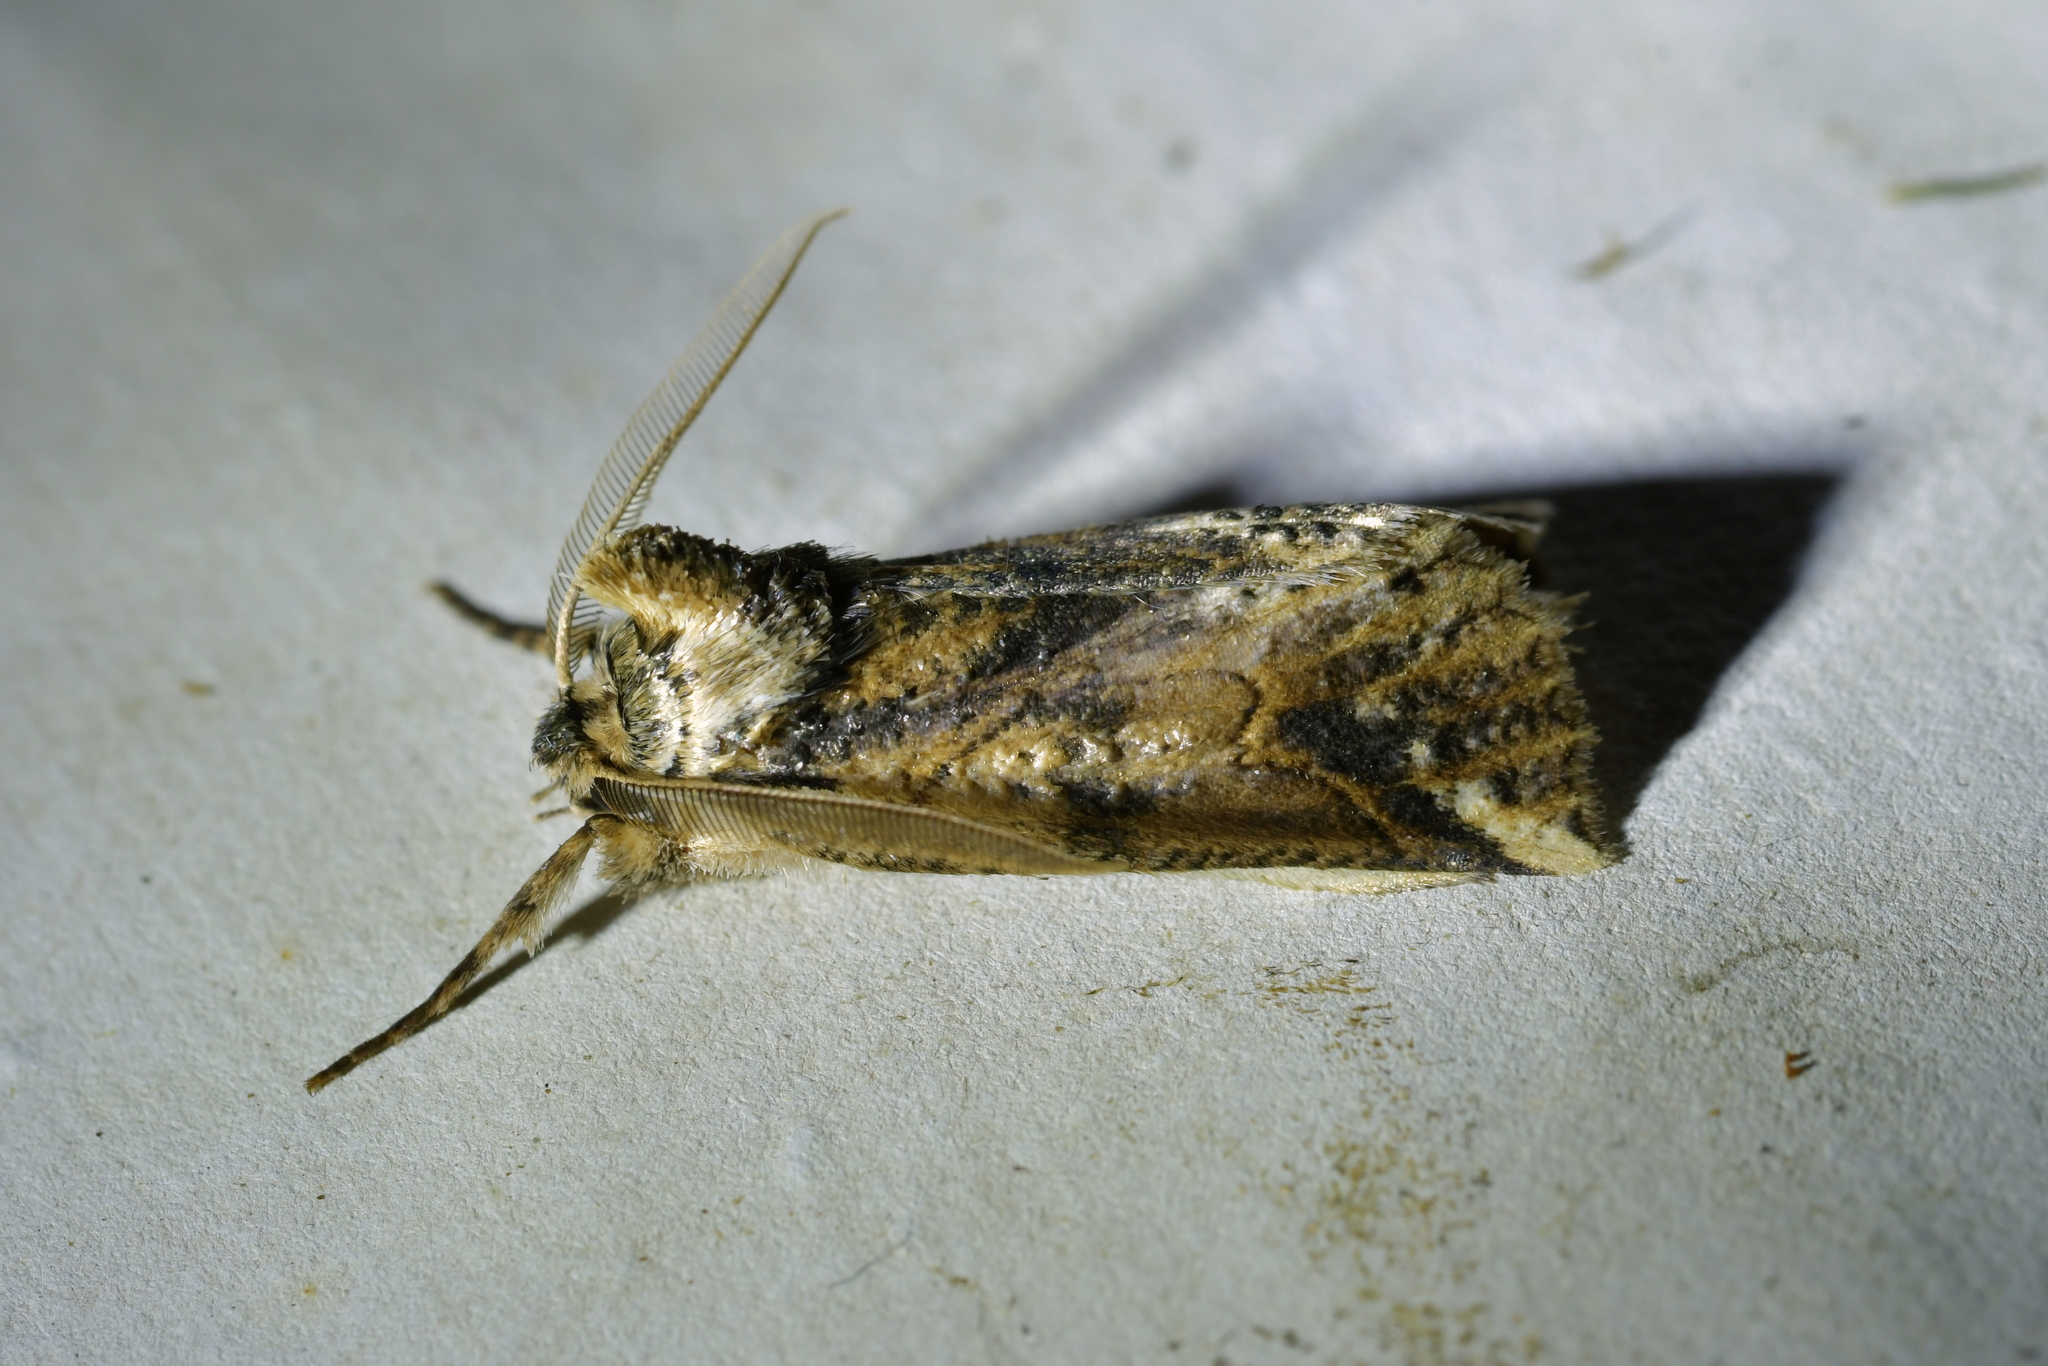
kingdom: Animalia
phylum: Arthropoda
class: Insecta
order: Lepidoptera
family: Geometridae
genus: Declana
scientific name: Declana
